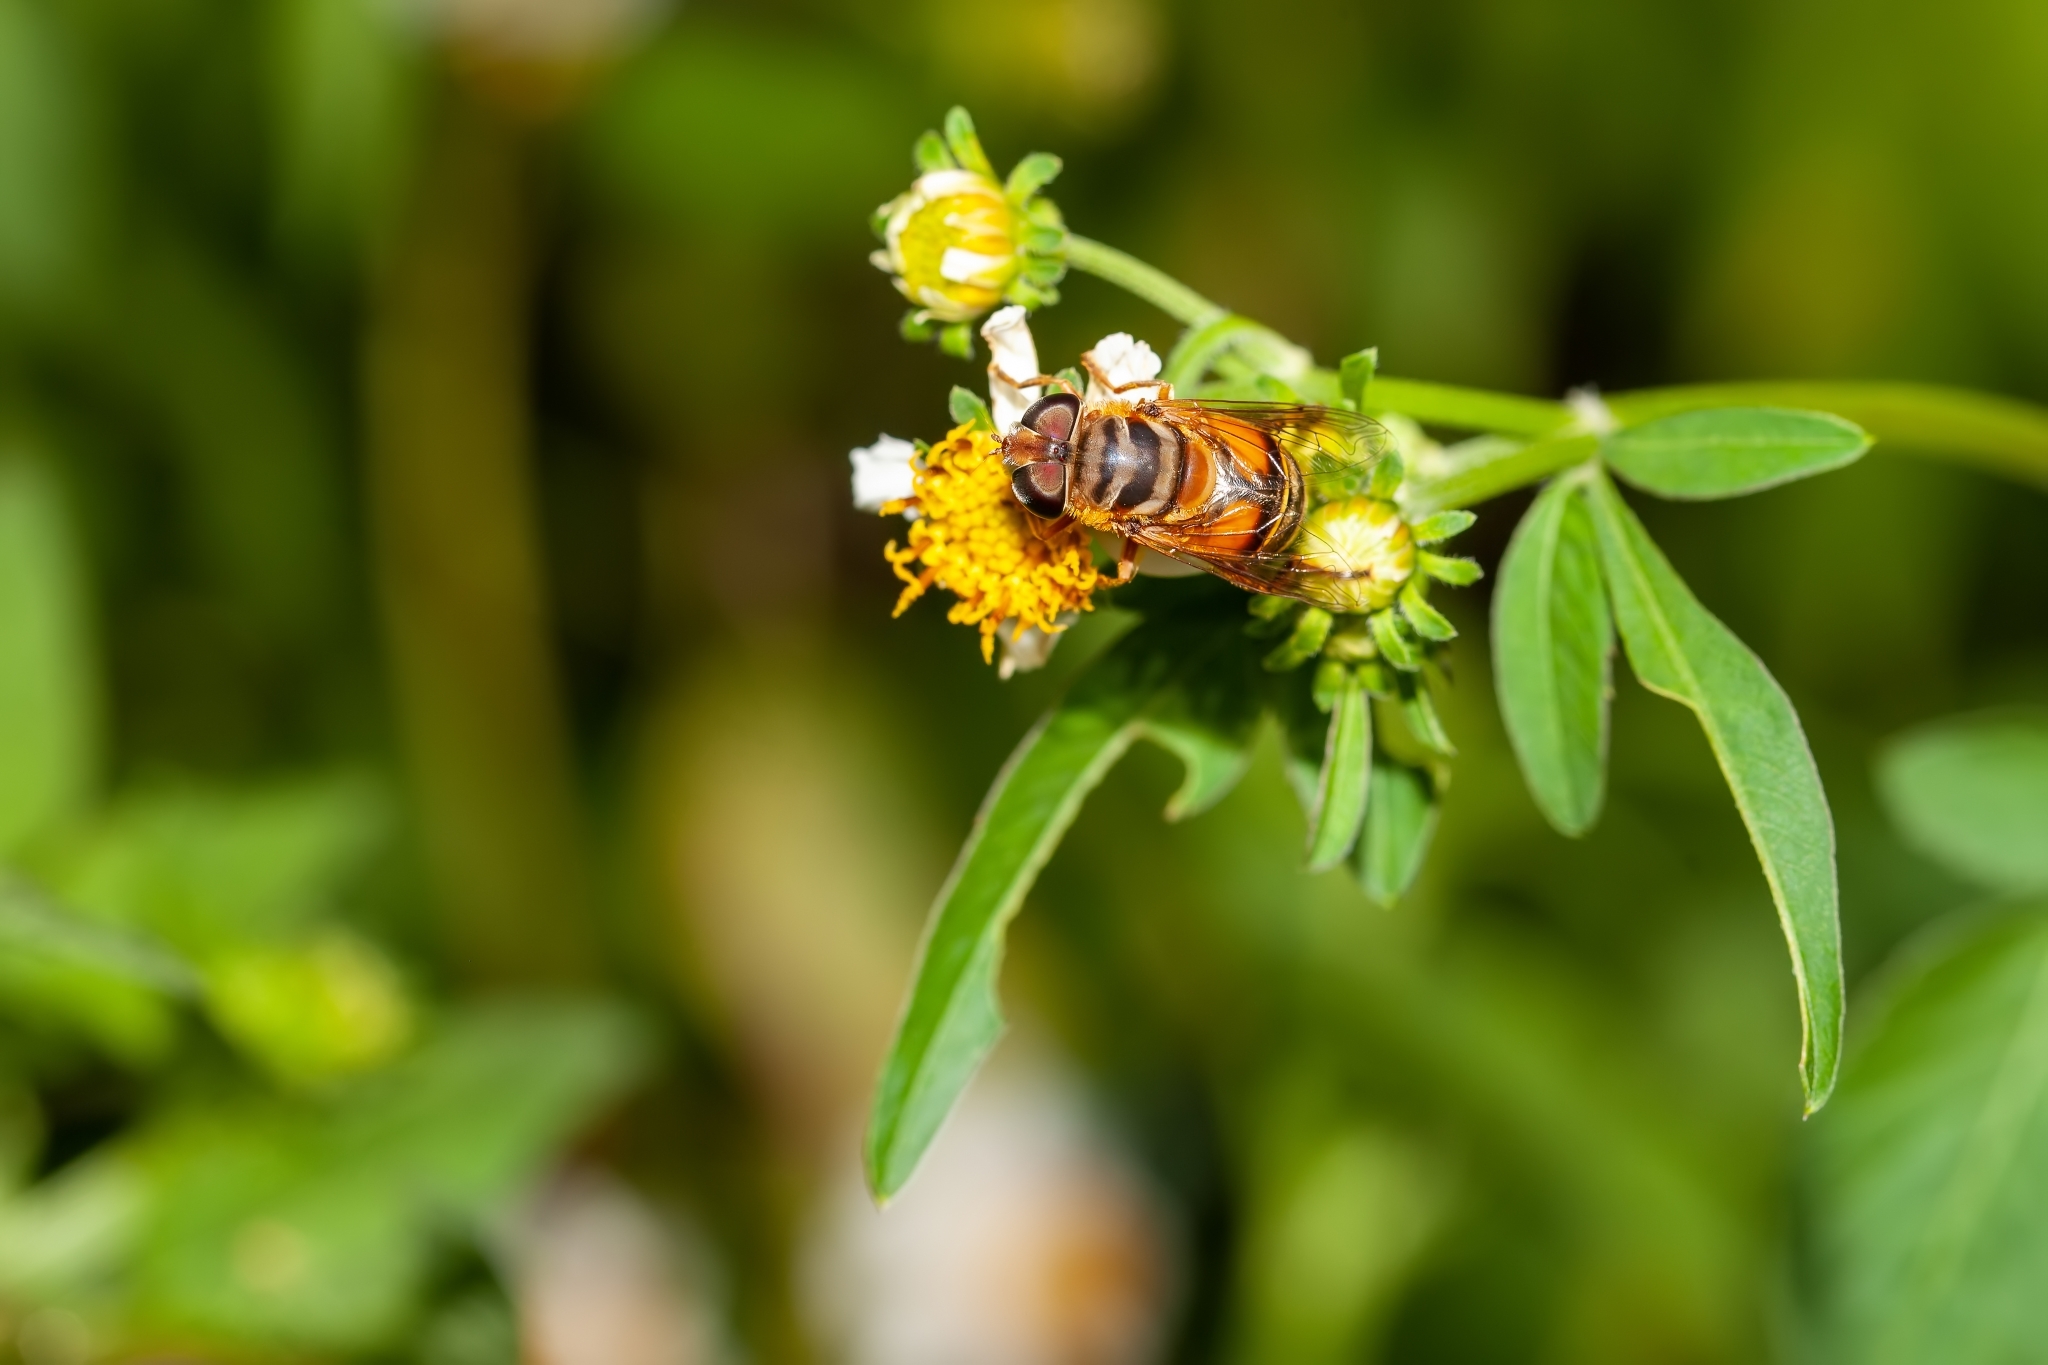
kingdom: Animalia
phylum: Arthropoda
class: Insecta
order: Diptera
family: Syrphidae
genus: Palpada
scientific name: Palpada vinetorum
